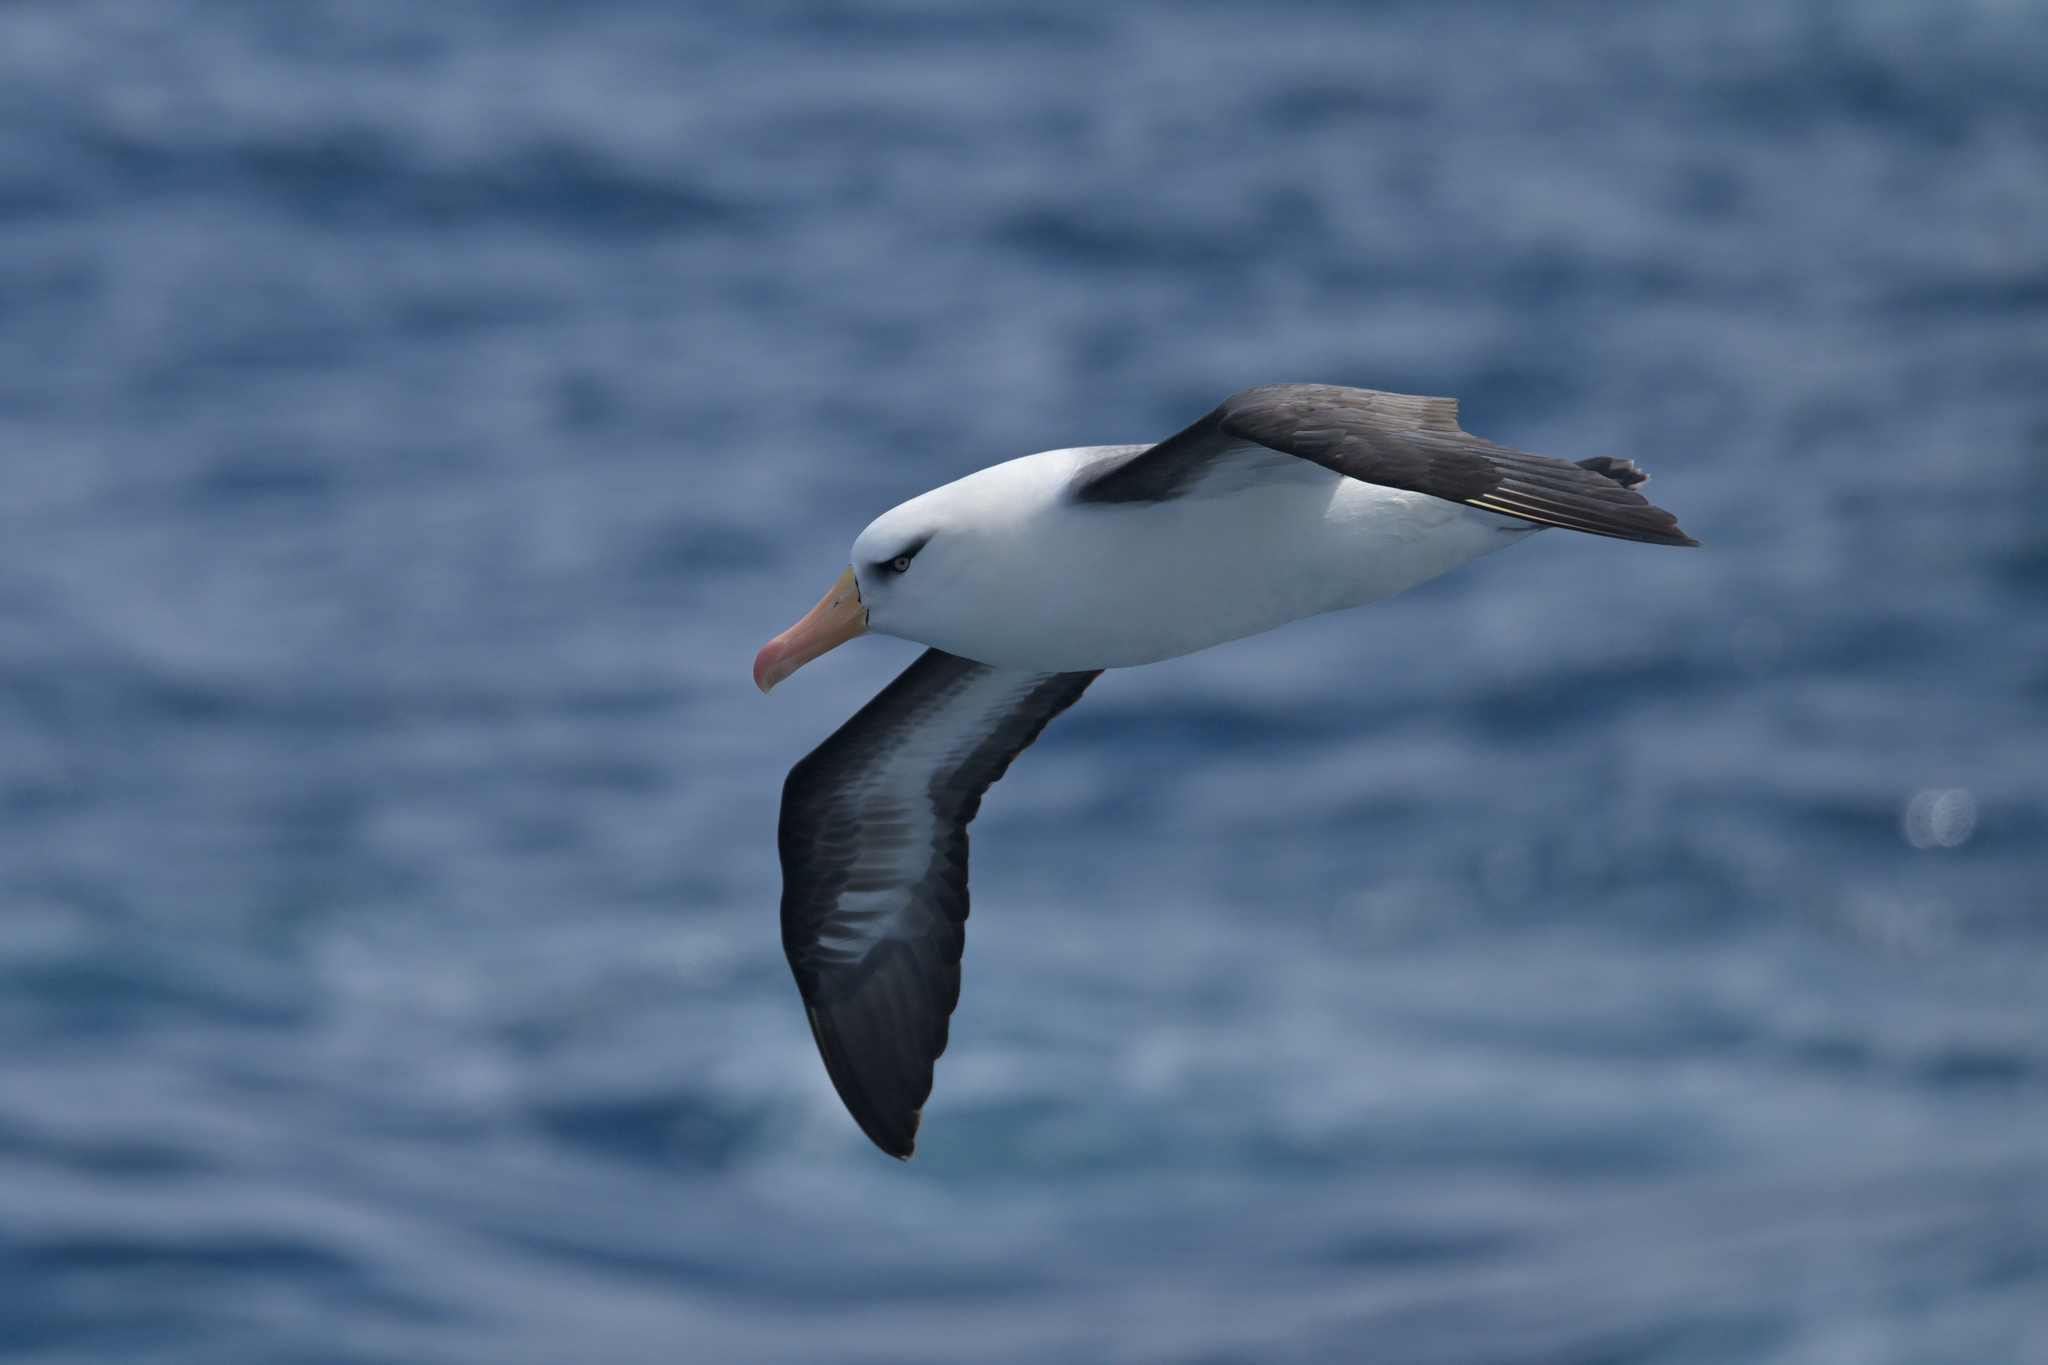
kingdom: Animalia
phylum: Chordata
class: Aves
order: Procellariiformes
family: Diomedeidae
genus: Thalassarche
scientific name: Thalassarche impavida
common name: Campbell albatross
